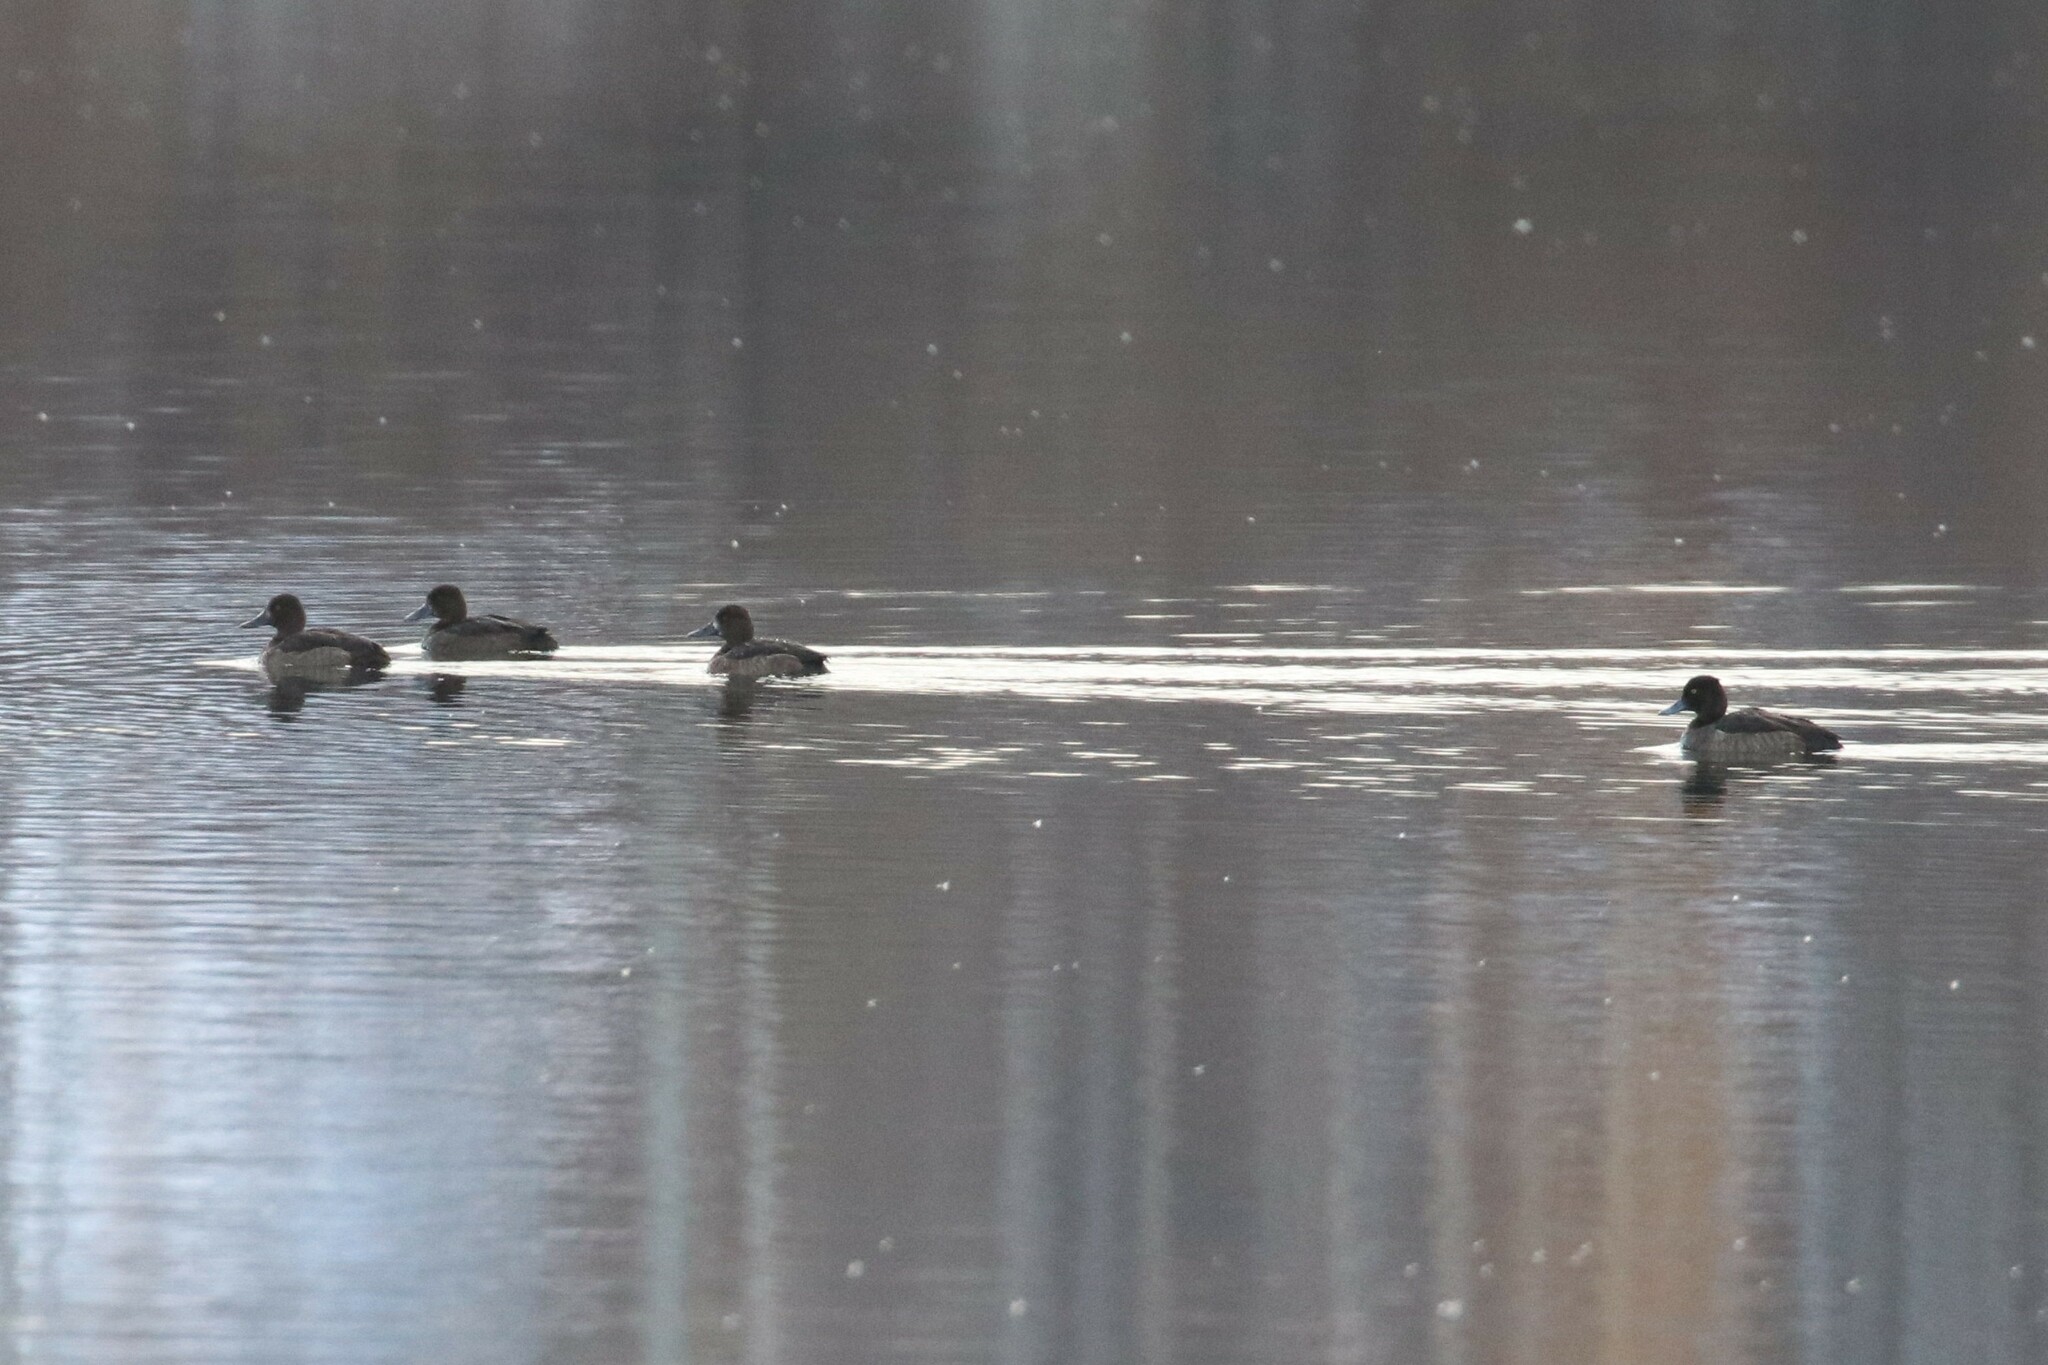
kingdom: Animalia
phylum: Chordata
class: Aves
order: Anseriformes
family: Anatidae
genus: Aythya
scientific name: Aythya fuligula
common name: Tufted duck
